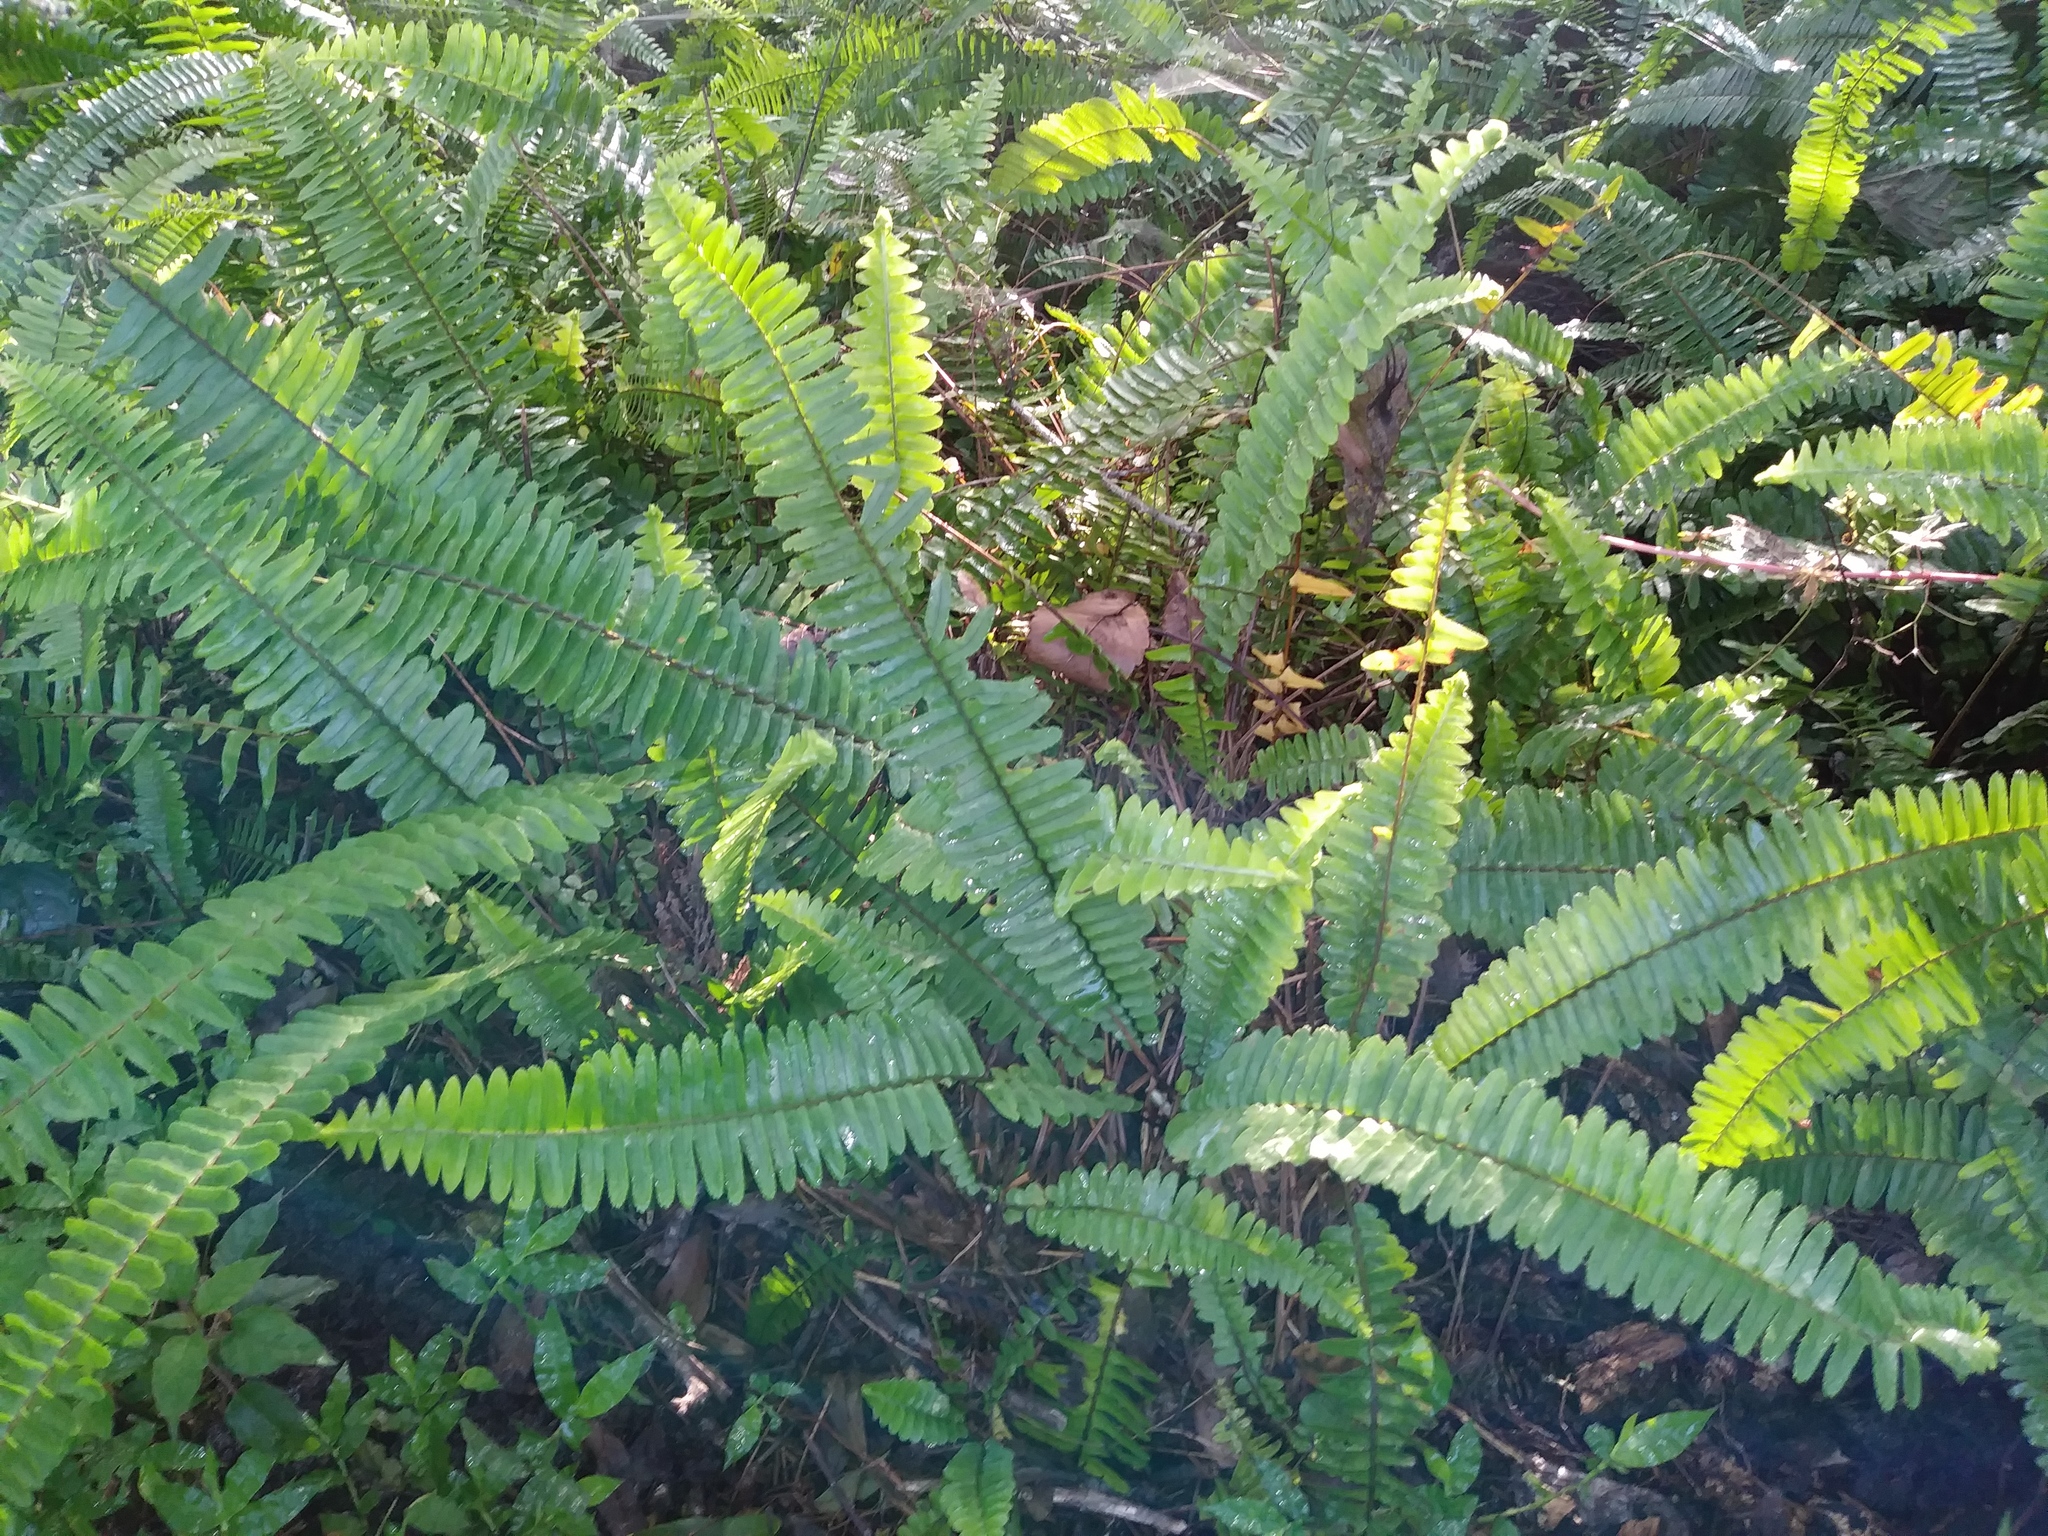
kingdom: Plantae
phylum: Tracheophyta
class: Polypodiopsida
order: Polypodiales
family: Nephrolepidaceae
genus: Nephrolepis
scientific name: Nephrolepis exaltata
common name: Sword fern
